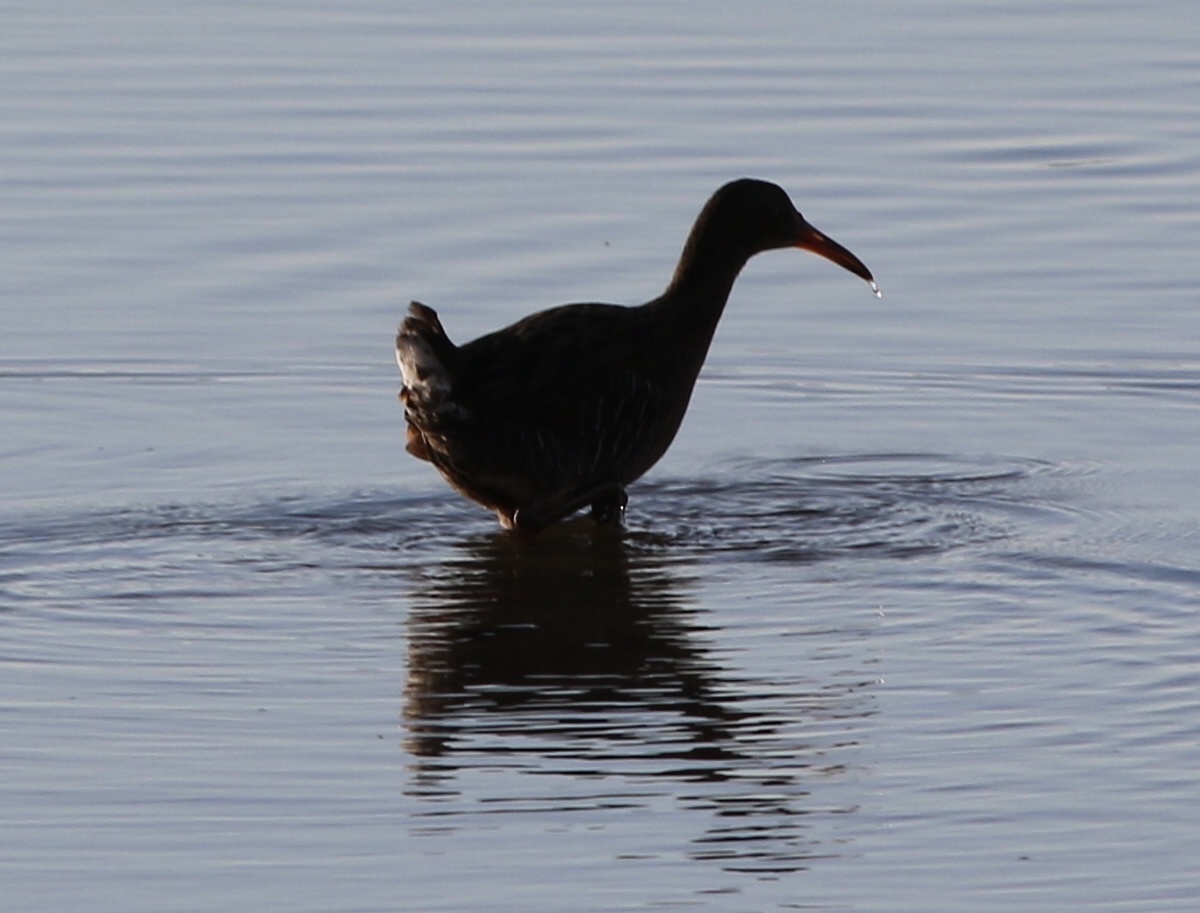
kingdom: Animalia
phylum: Chordata
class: Aves
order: Gruiformes
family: Rallidae
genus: Rallus
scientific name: Rallus obsoletus
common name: Ridgway's rail
